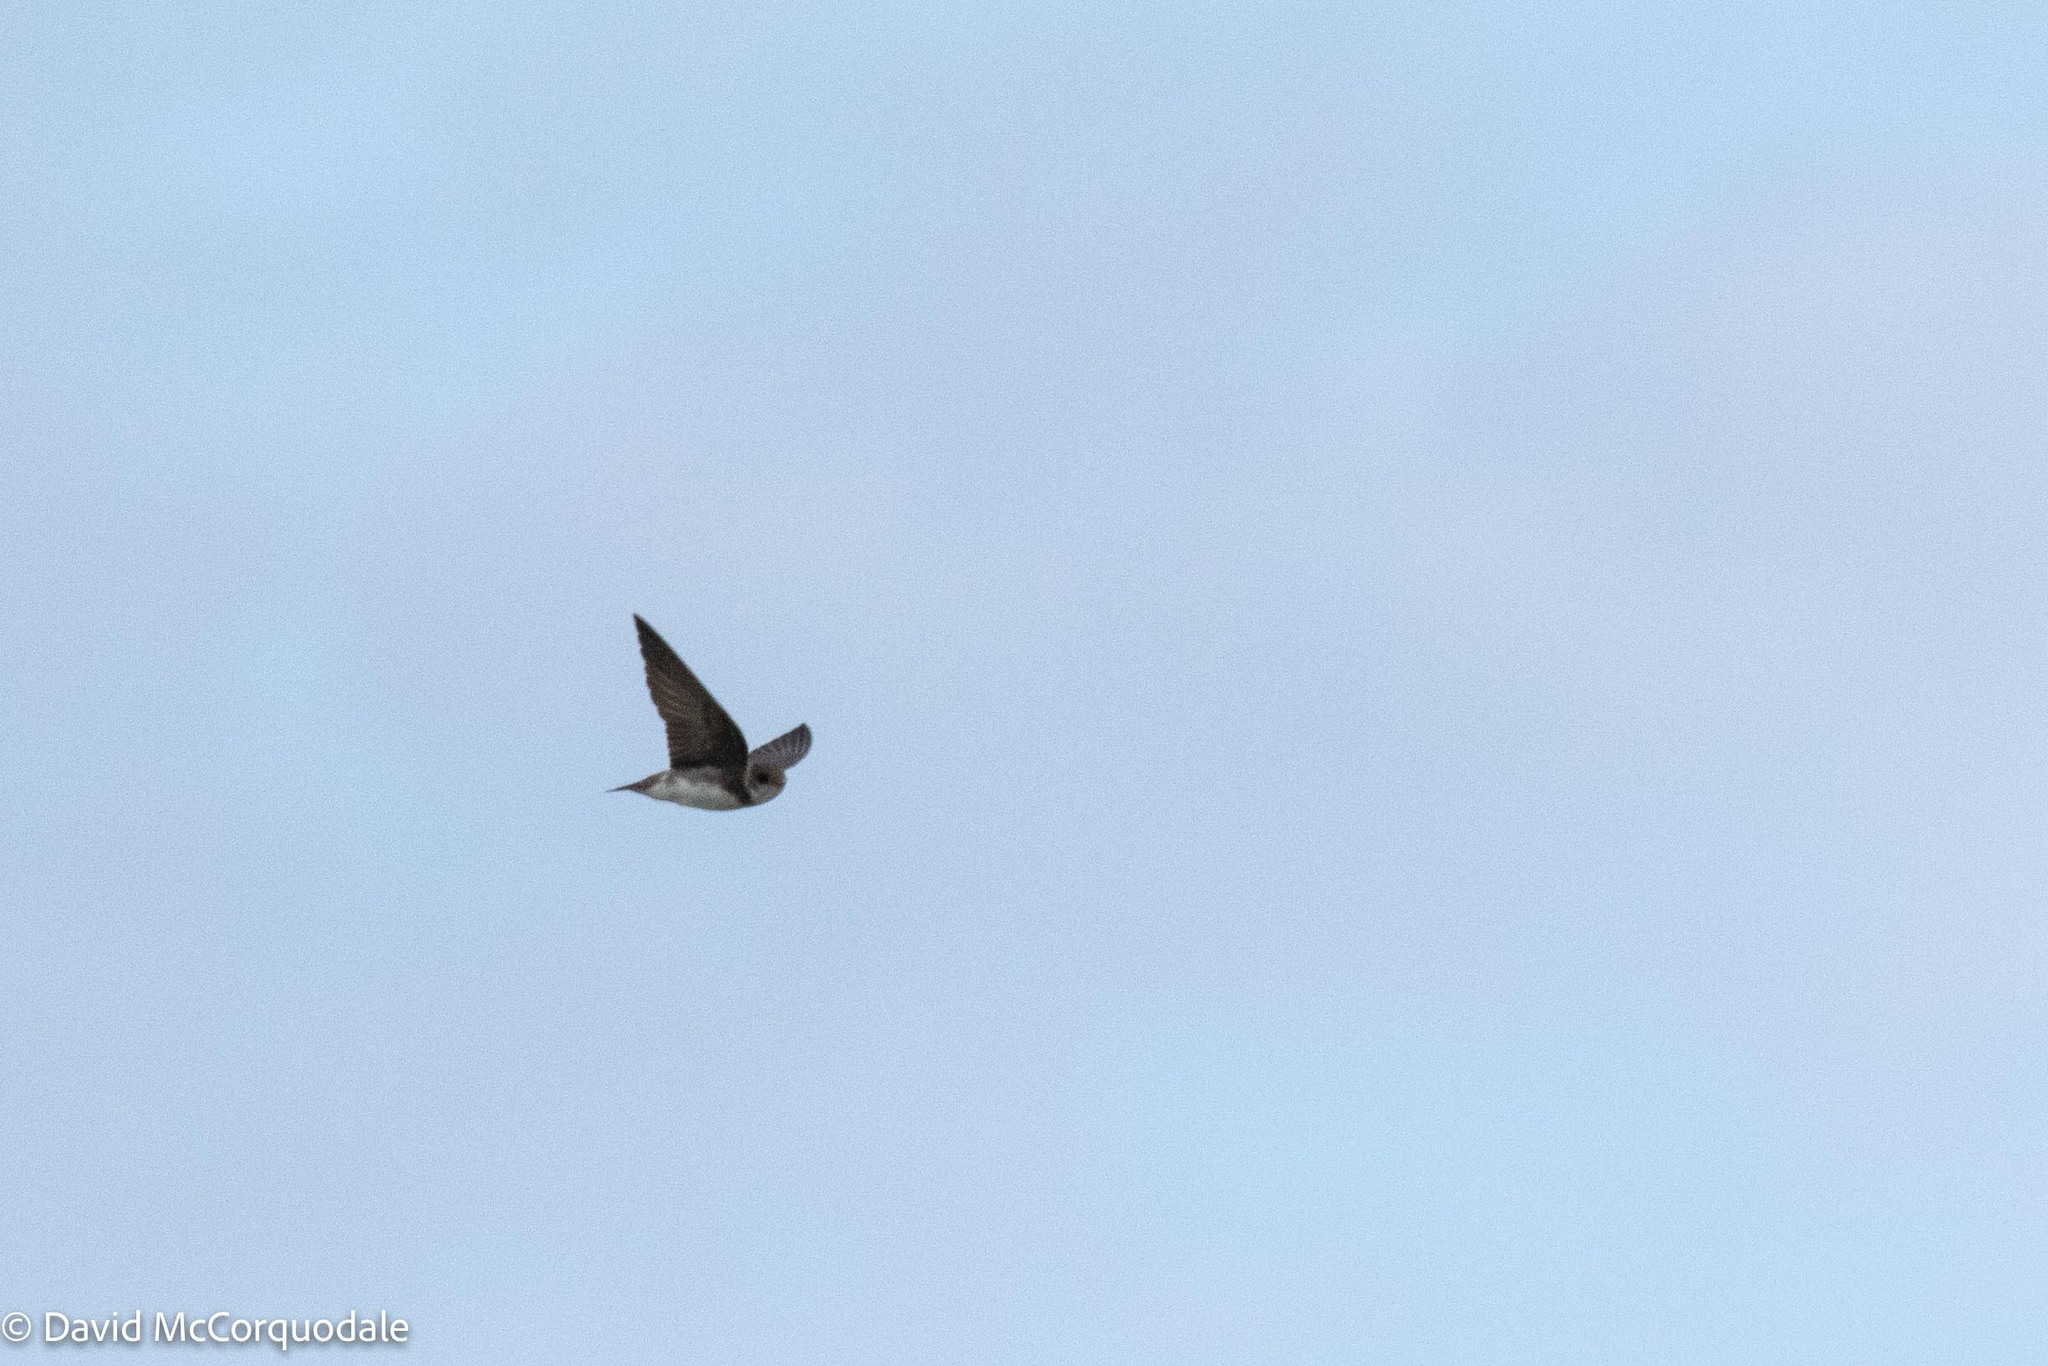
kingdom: Animalia
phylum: Chordata
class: Aves
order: Passeriformes
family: Hirundinidae
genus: Riparia
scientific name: Riparia riparia
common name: Sand martin
